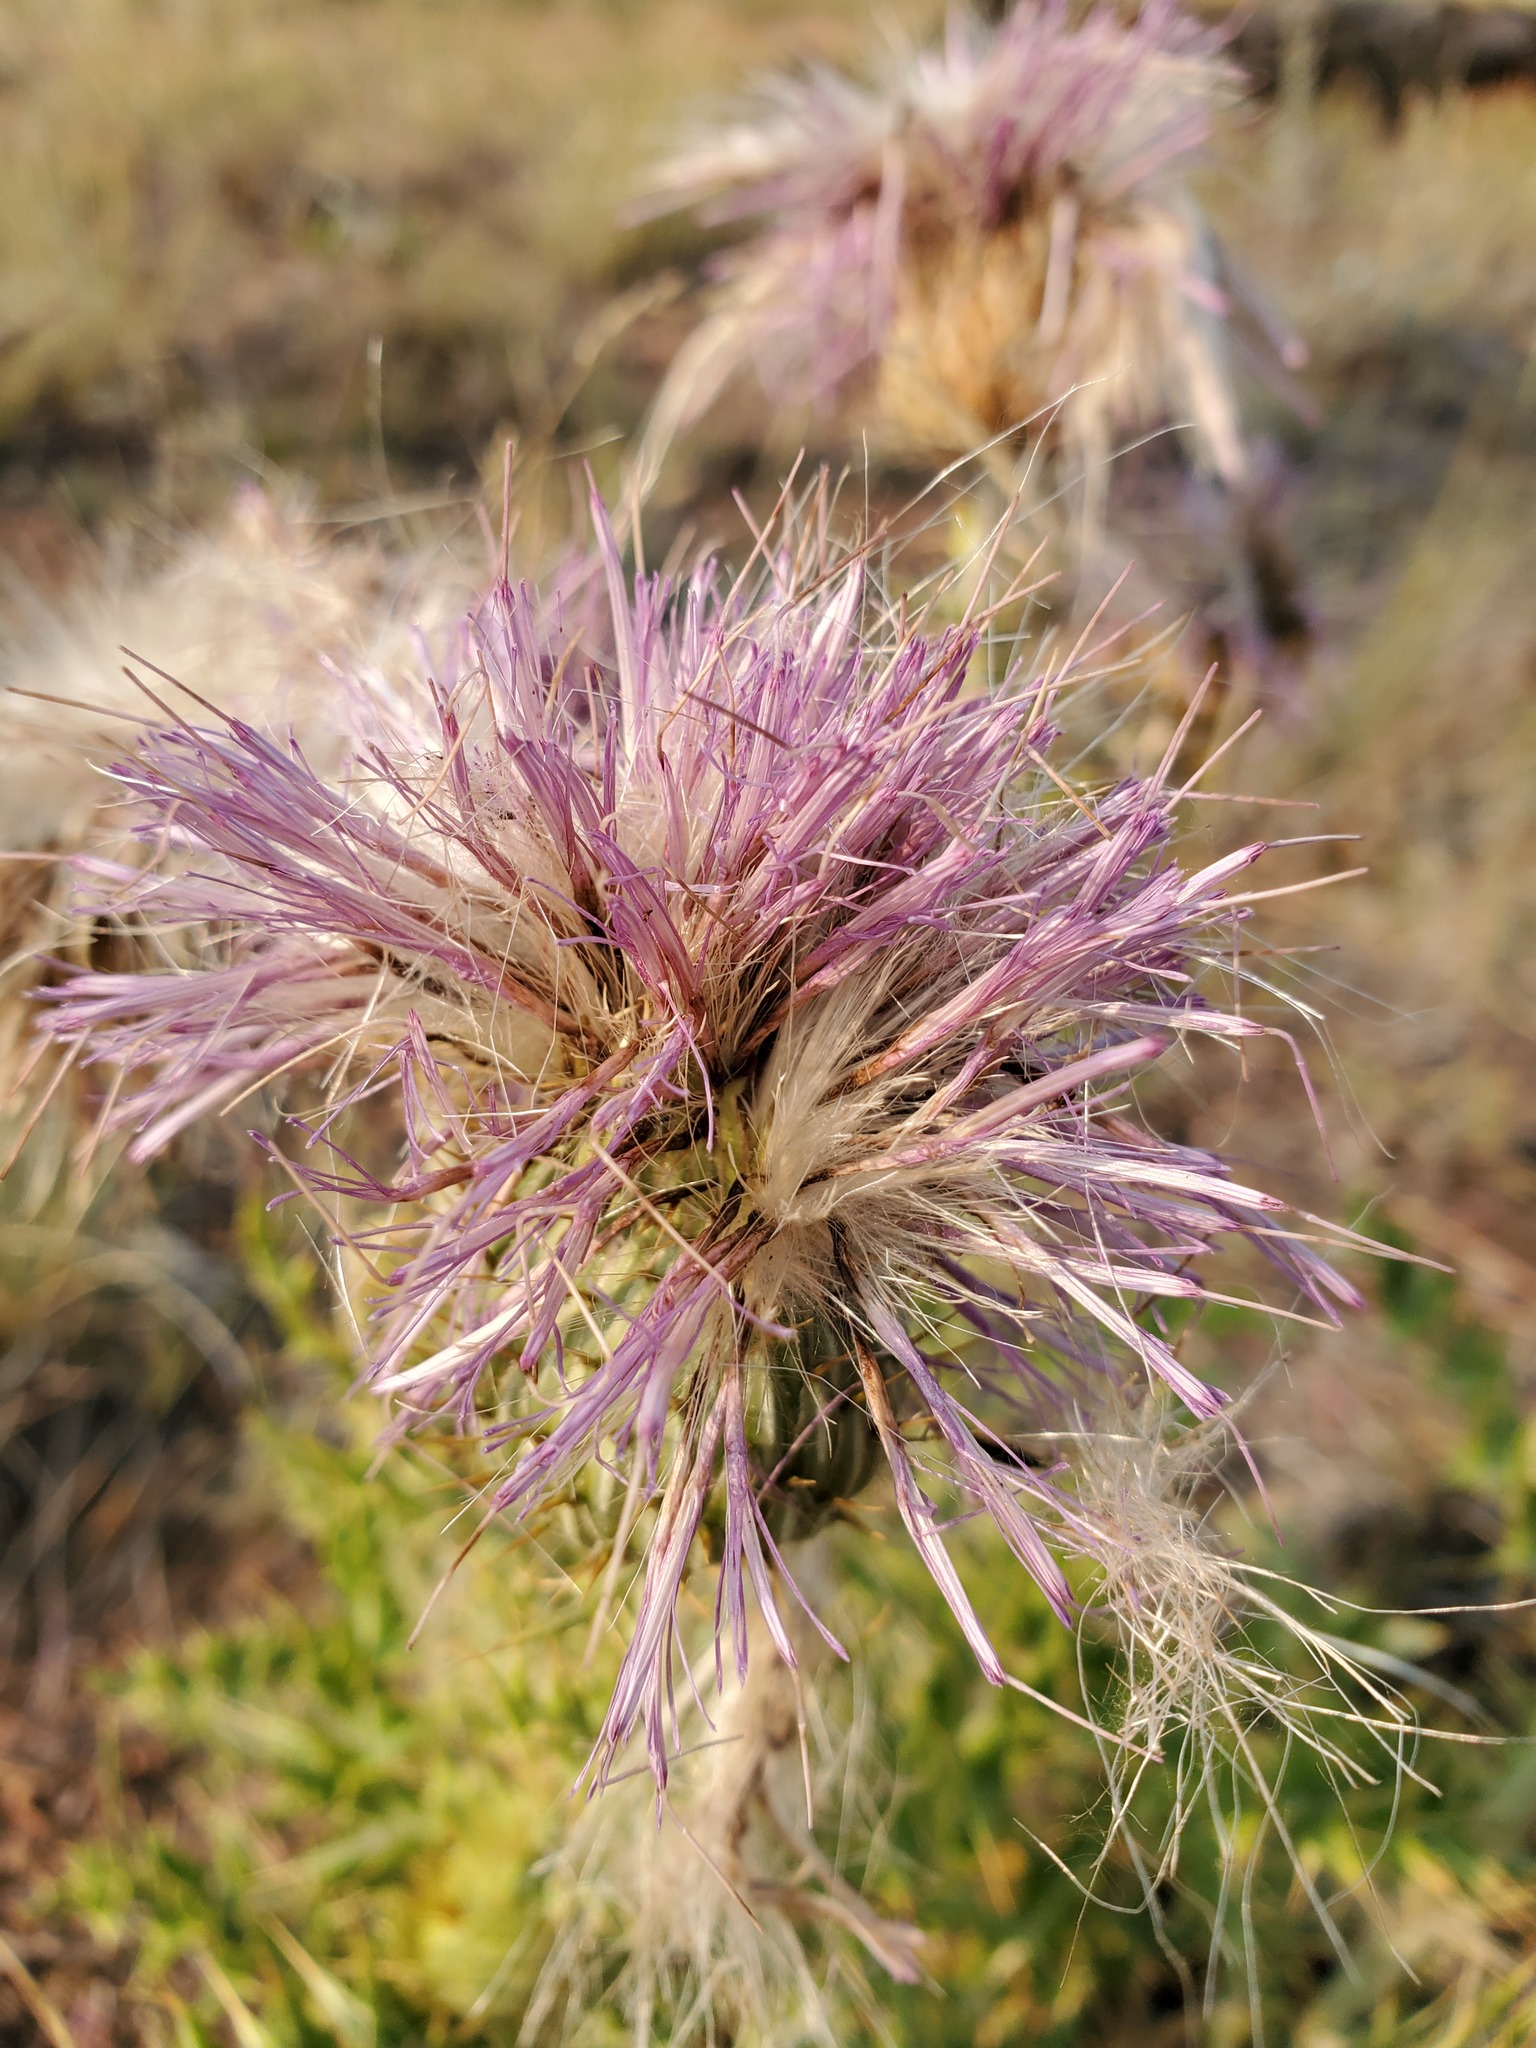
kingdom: Plantae
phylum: Tracheophyta
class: Magnoliopsida
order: Asterales
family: Asteraceae
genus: Cirsium
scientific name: Cirsium undulatum
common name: Pasture thistle
